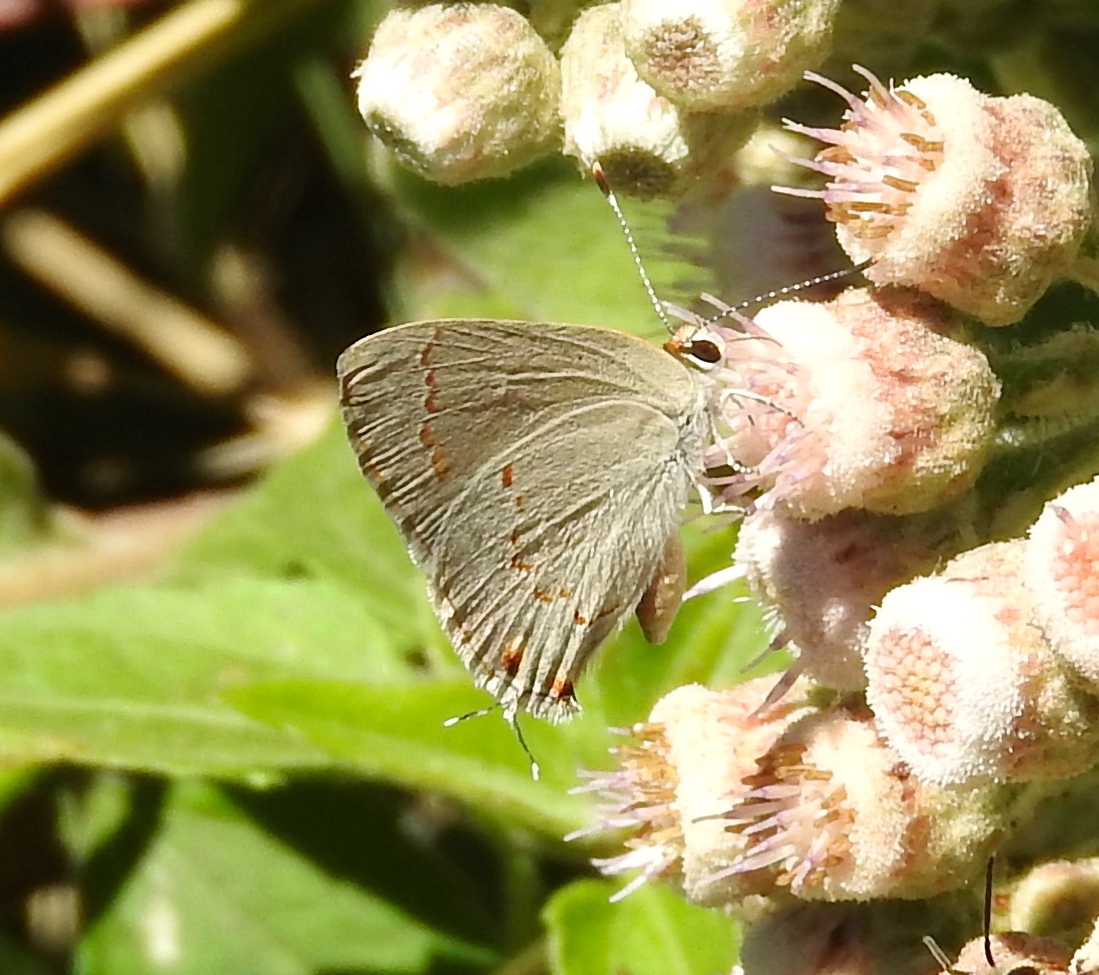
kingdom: Animalia
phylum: Arthropoda
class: Insecta
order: Lepidoptera
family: Lycaenidae
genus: Thecla
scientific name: Thecla rufofusca
